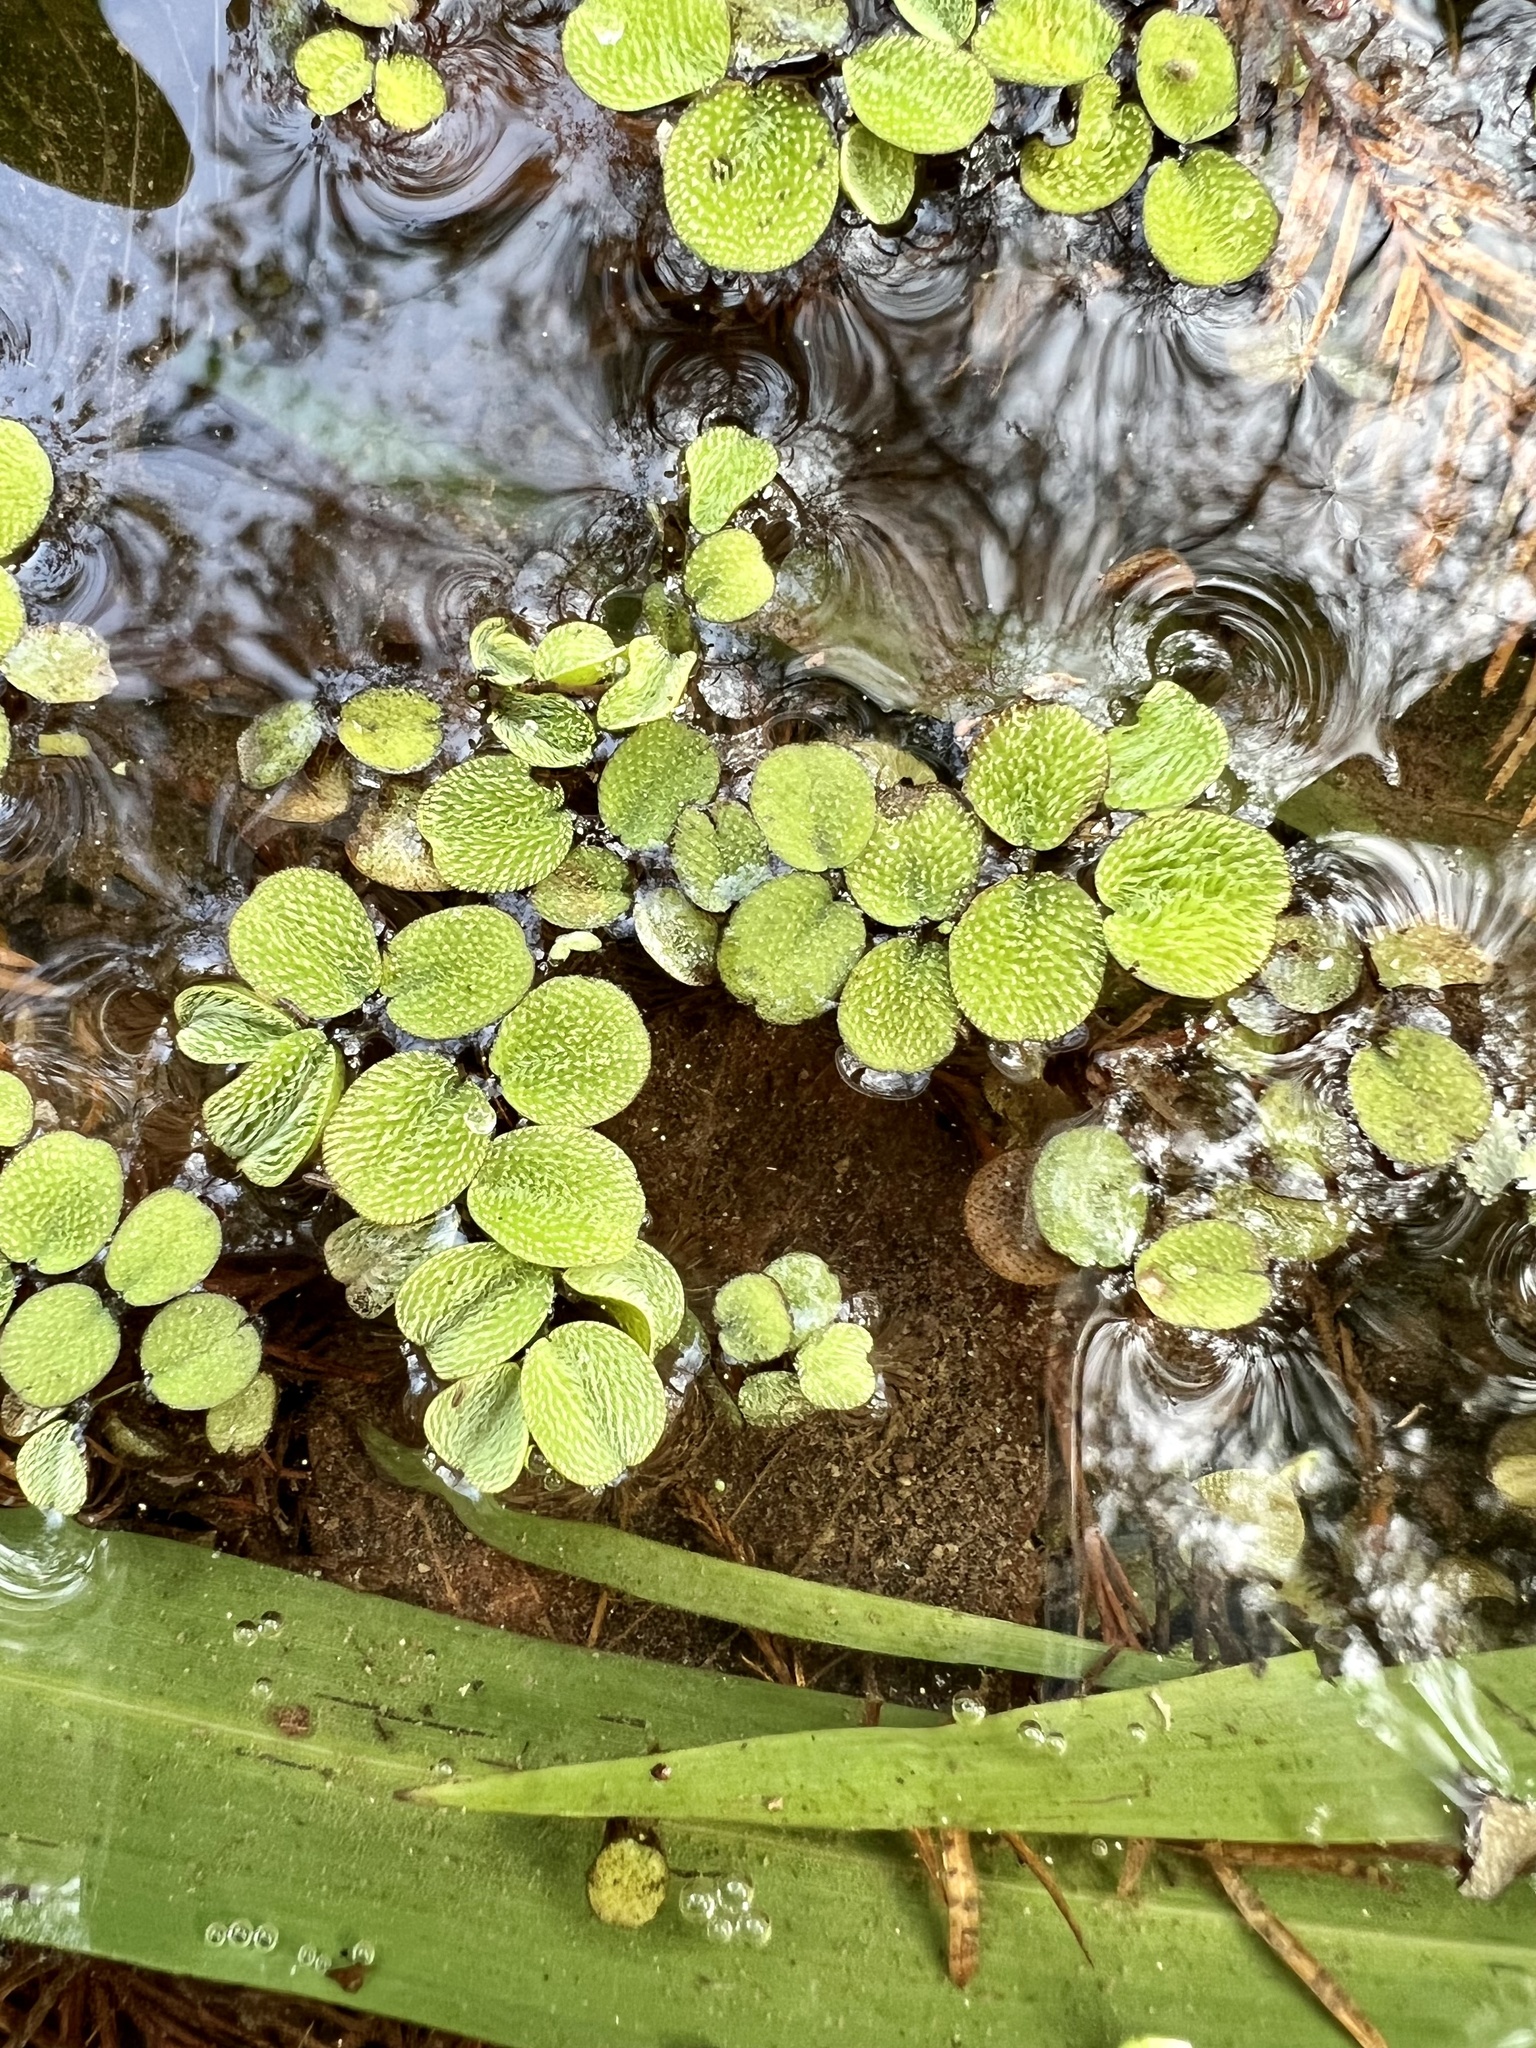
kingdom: Plantae
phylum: Tracheophyta
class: Polypodiopsida
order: Salviniales
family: Salviniaceae
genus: Salvinia
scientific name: Salvinia minima
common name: Water spangles
